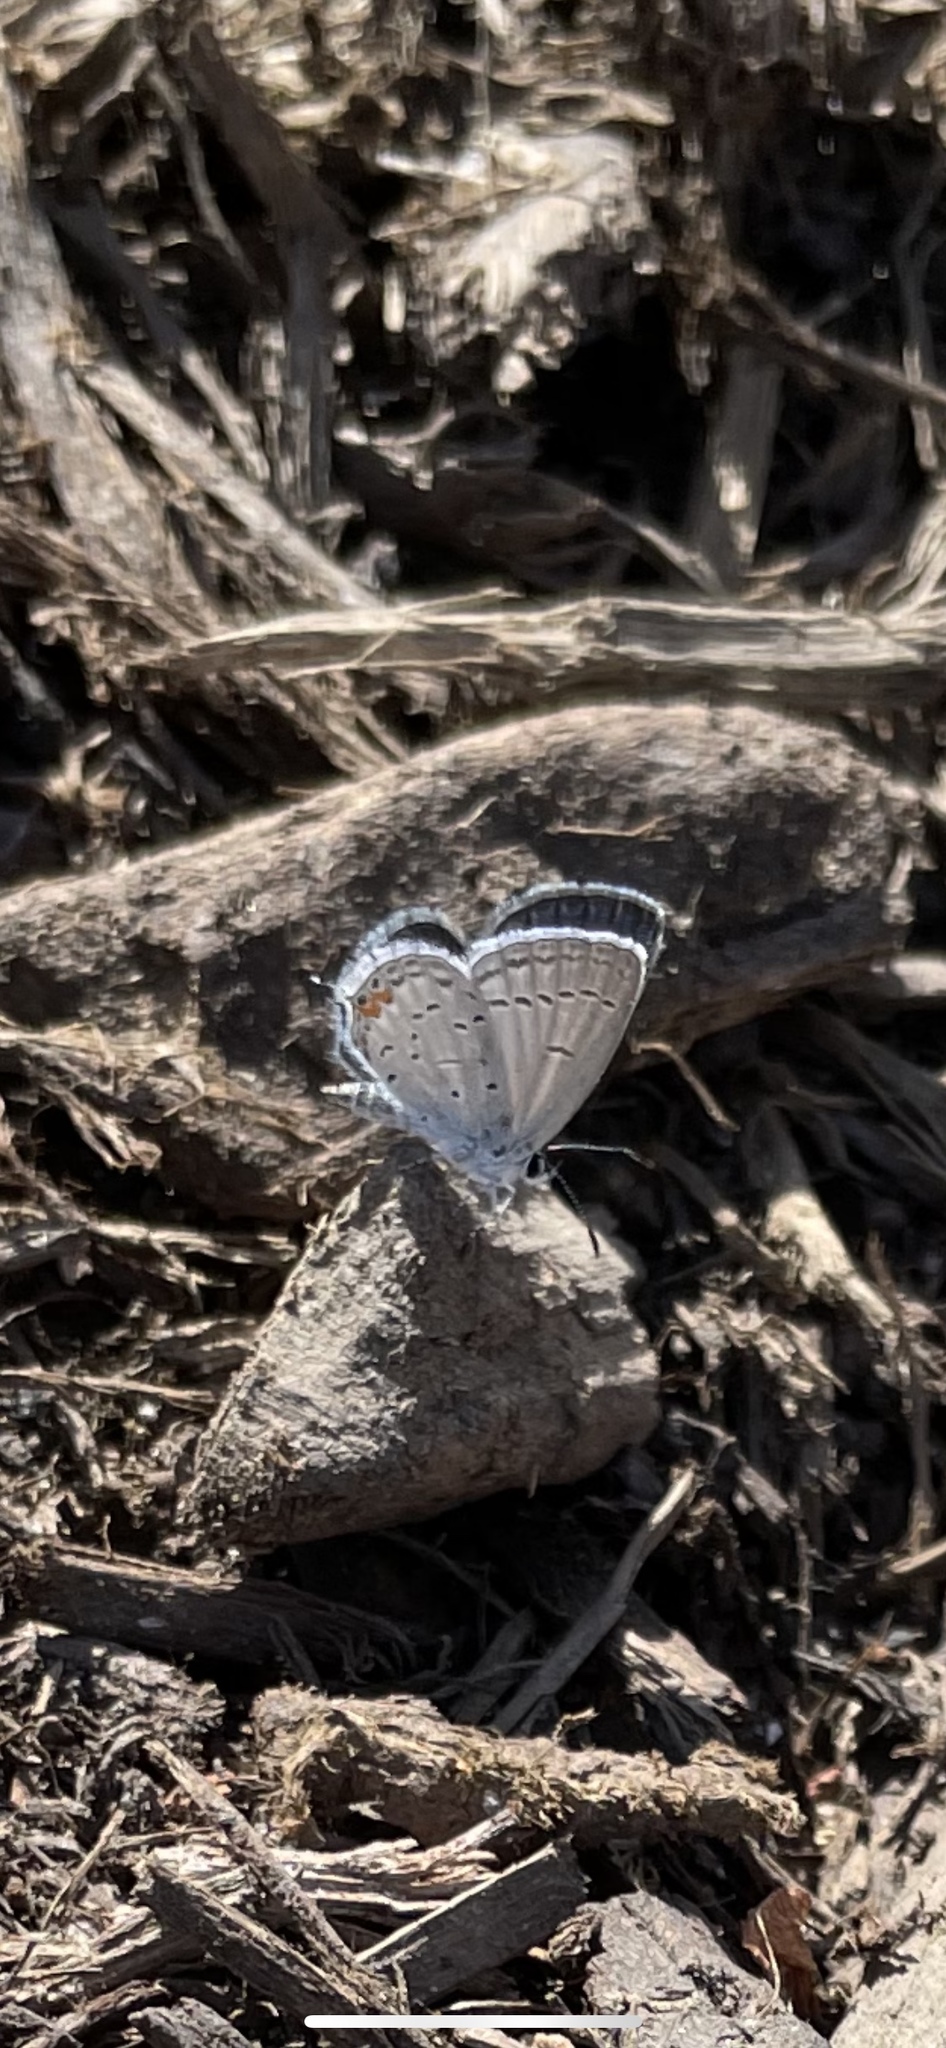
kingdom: Animalia
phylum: Arthropoda
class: Insecta
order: Lepidoptera
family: Lycaenidae
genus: Elkalyce
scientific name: Elkalyce comyntas
